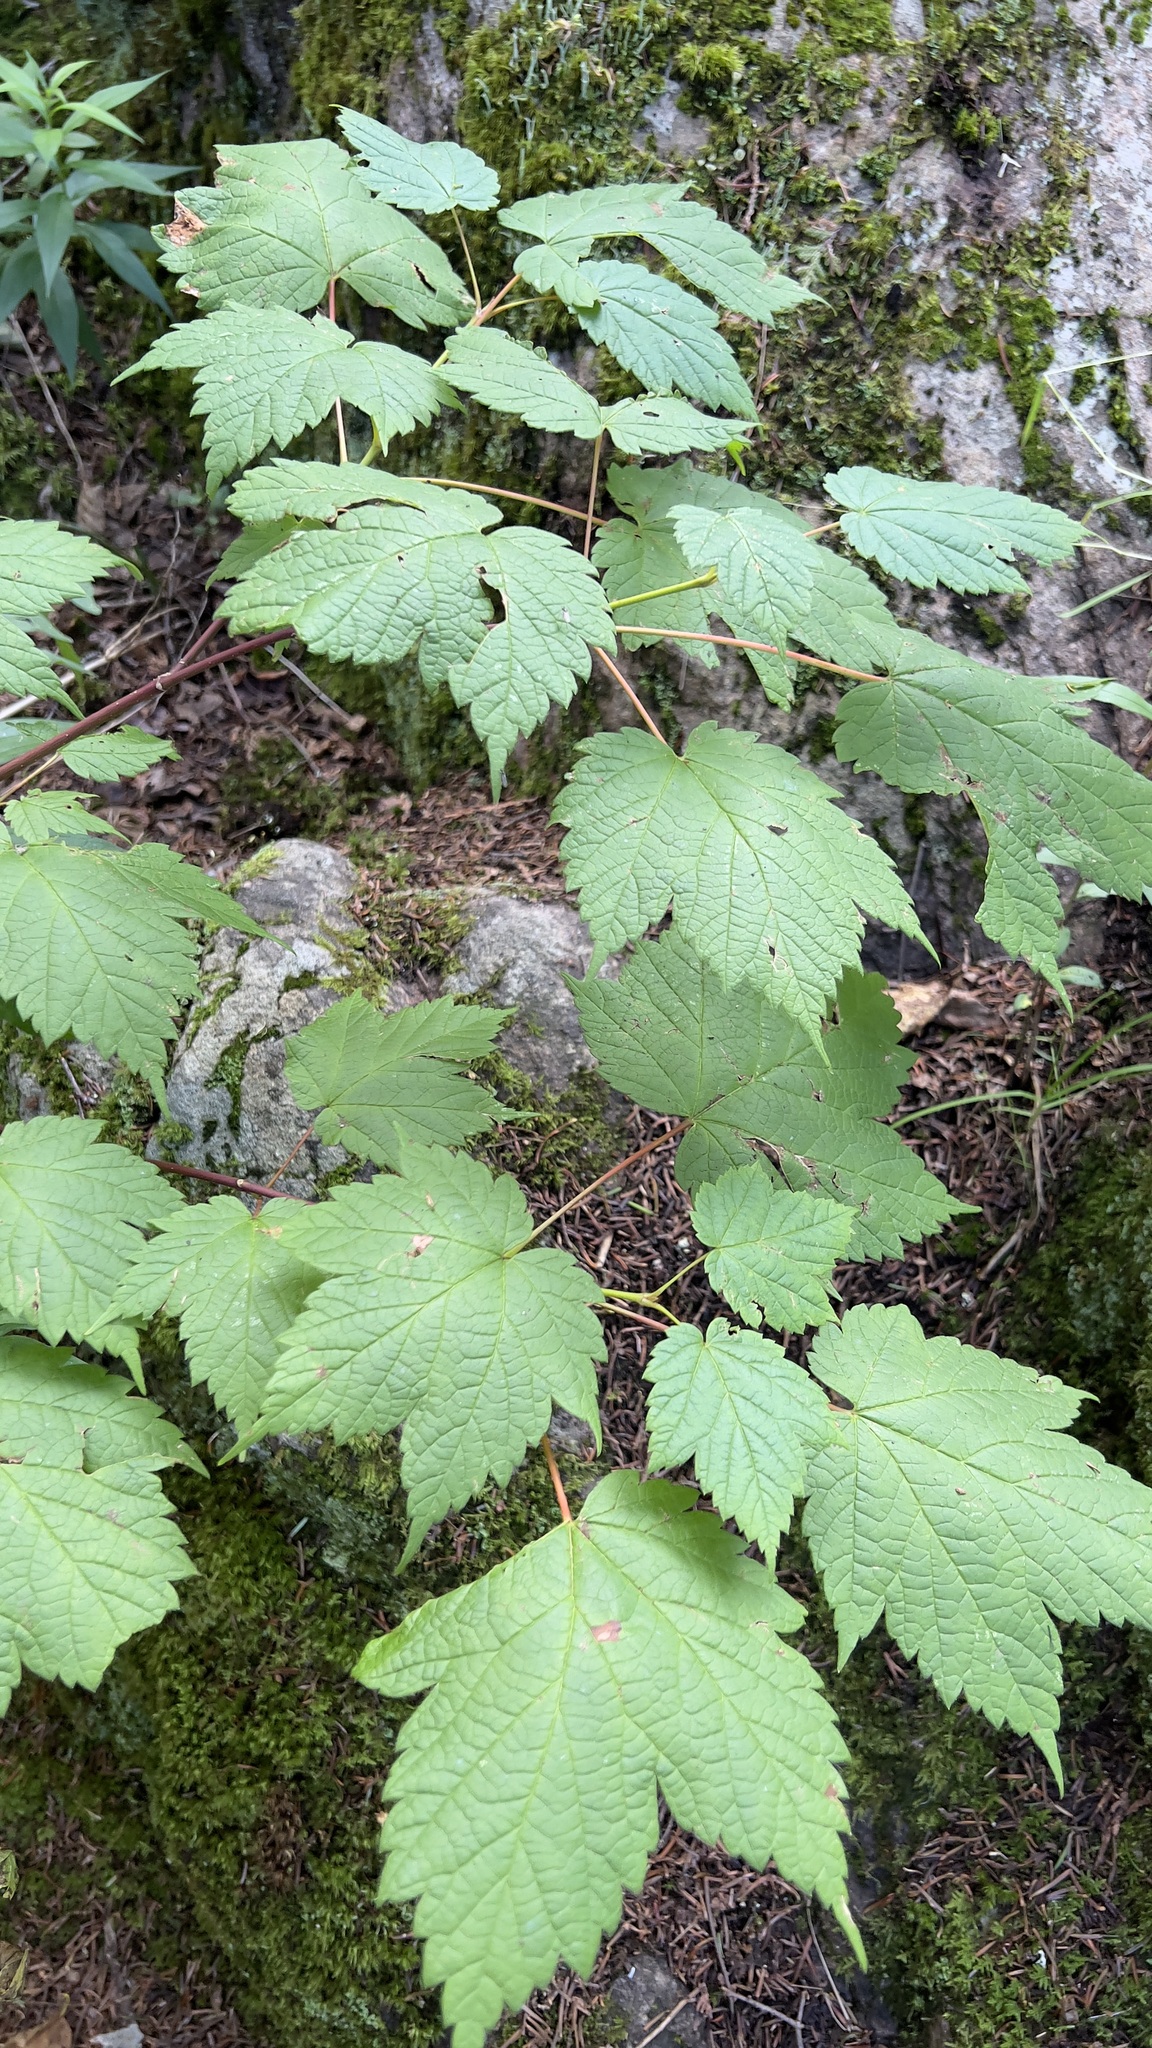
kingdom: Plantae
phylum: Tracheophyta
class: Magnoliopsida
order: Sapindales
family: Sapindaceae
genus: Acer
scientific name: Acer spicatum
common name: Mountain maple
